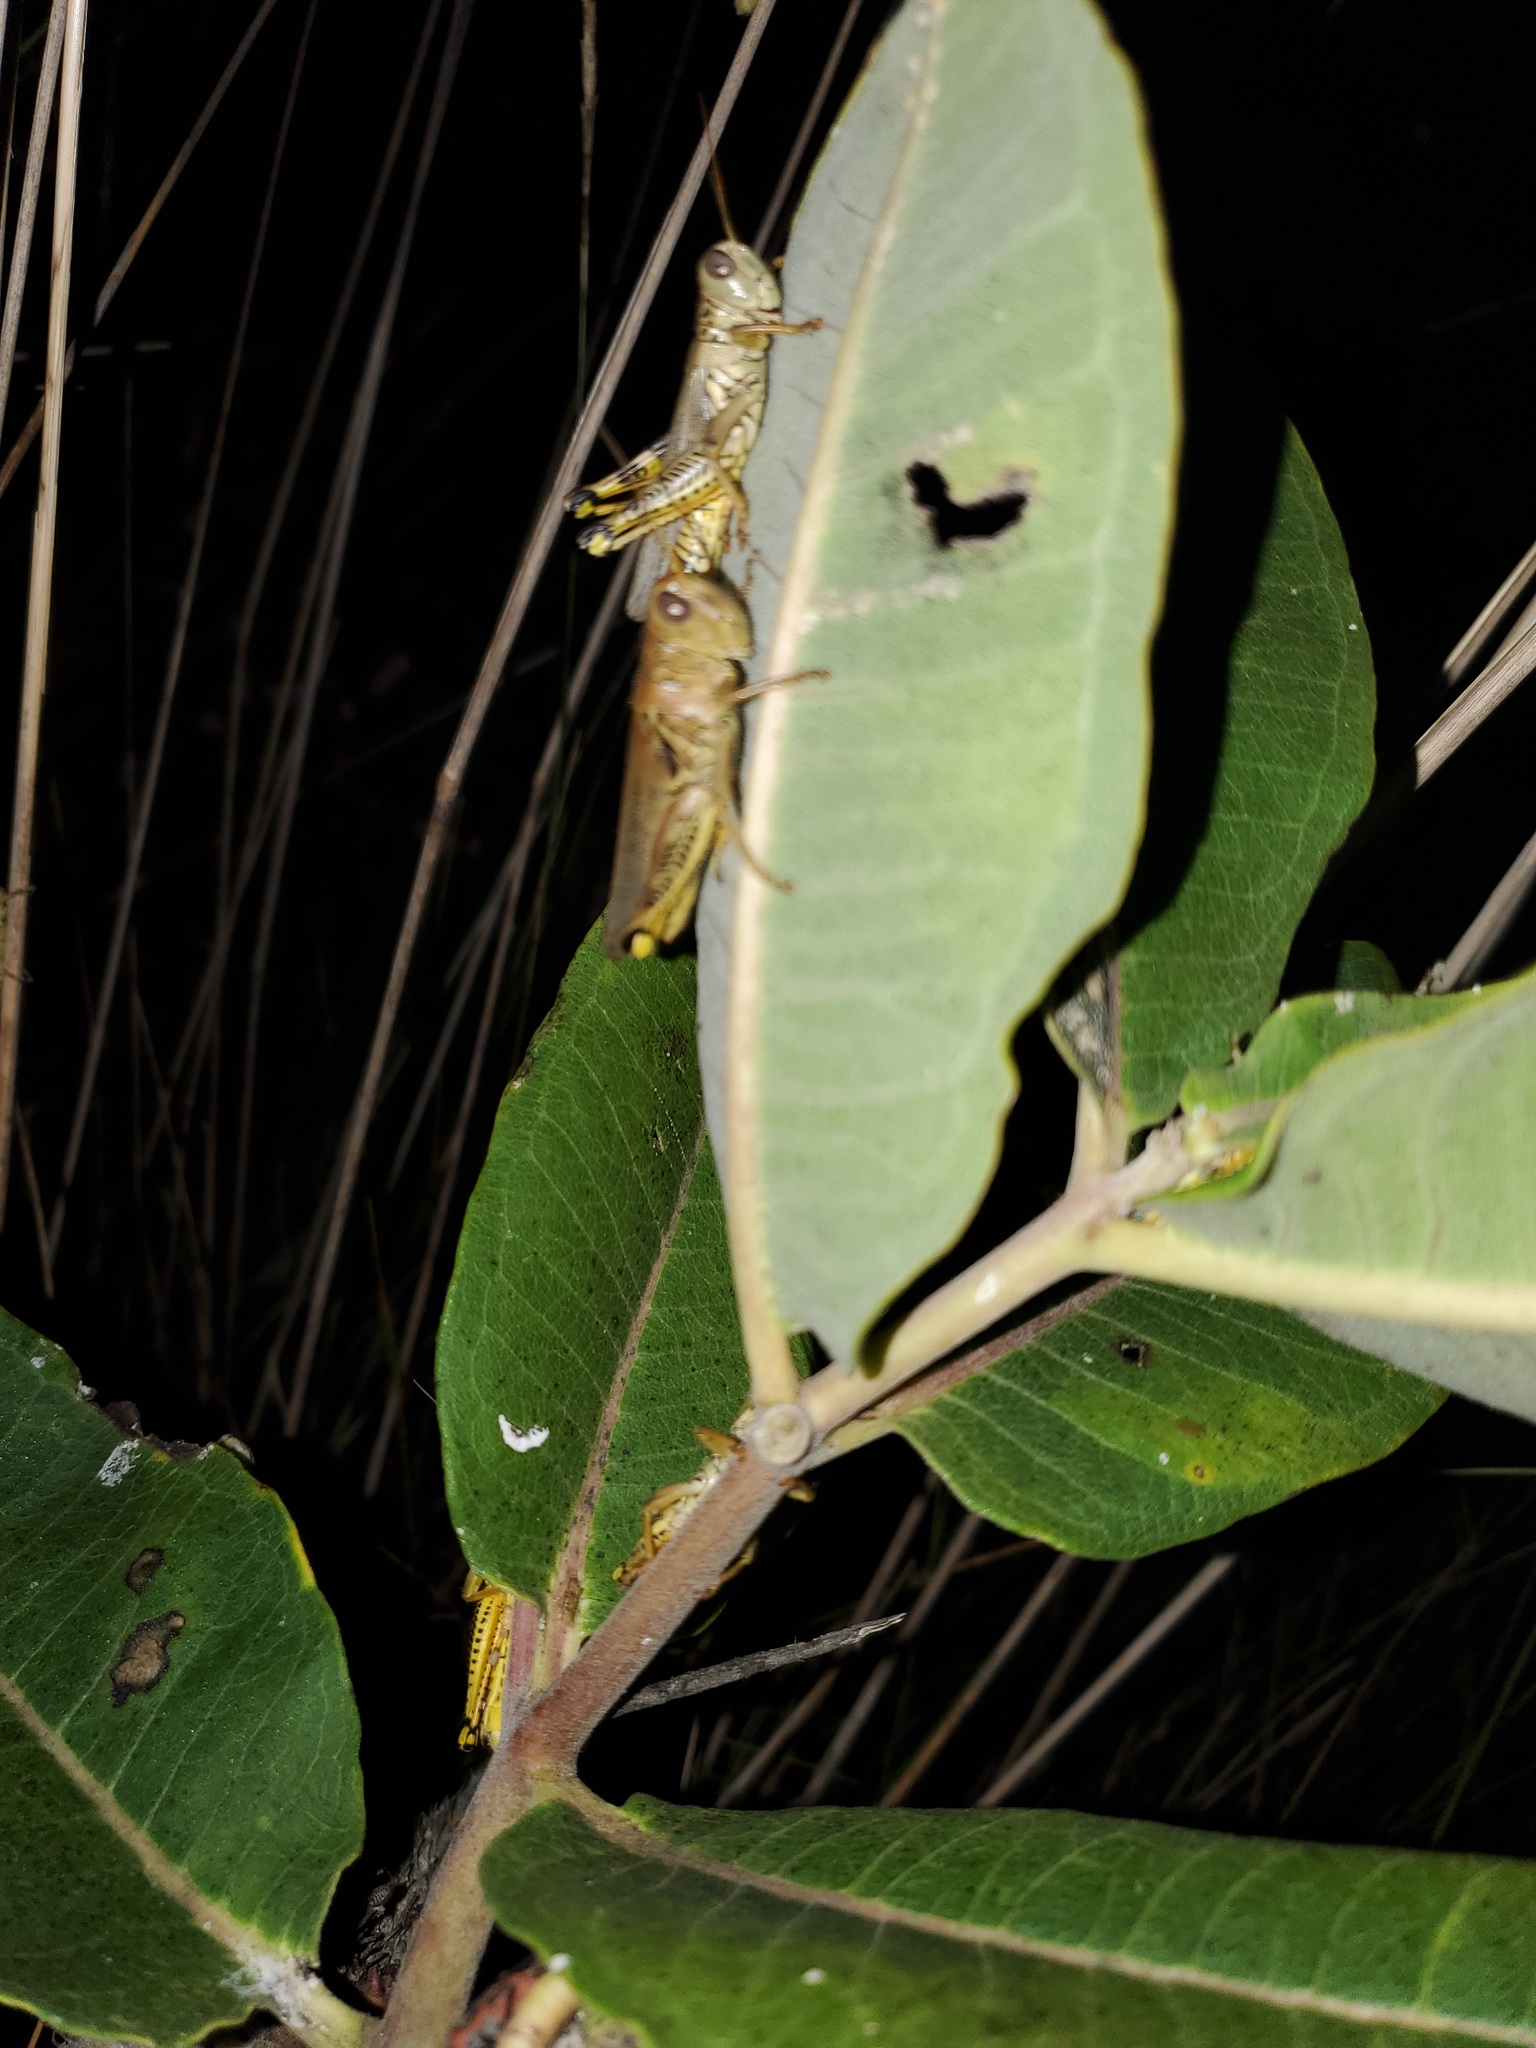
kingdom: Animalia
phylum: Arthropoda
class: Insecta
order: Orthoptera
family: Acrididae
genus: Melanoplus
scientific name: Melanoplus differentialis
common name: Differential grasshopper
